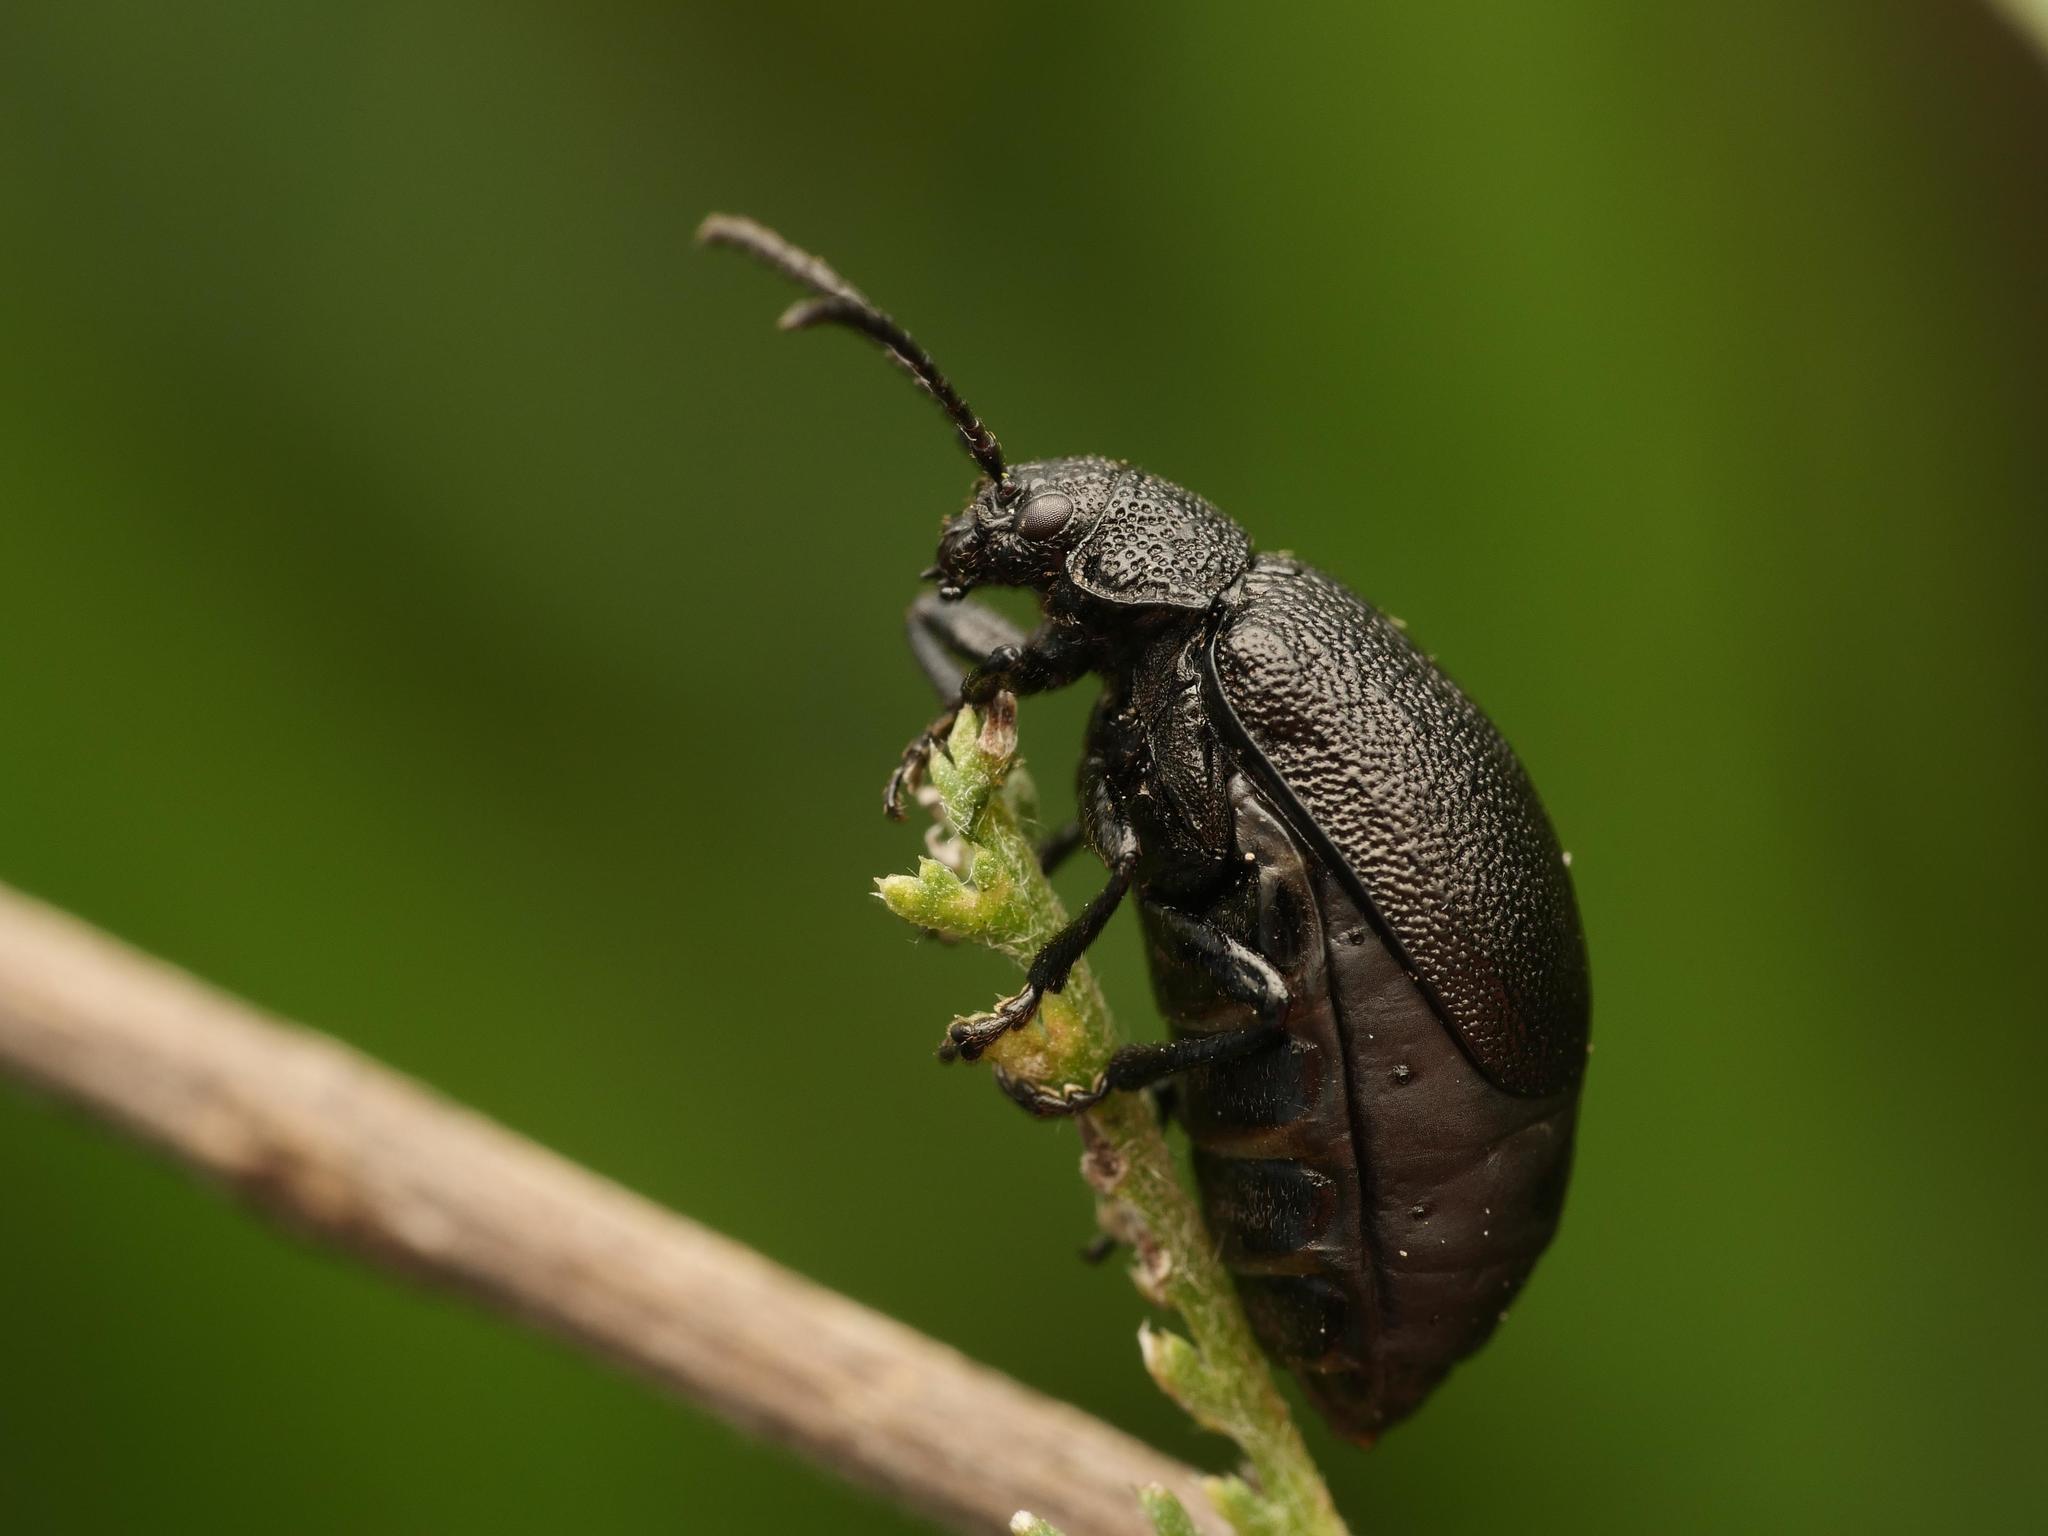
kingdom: Animalia
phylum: Arthropoda
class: Insecta
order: Coleoptera
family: Chrysomelidae
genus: Galeruca
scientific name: Galeruca tanaceti
